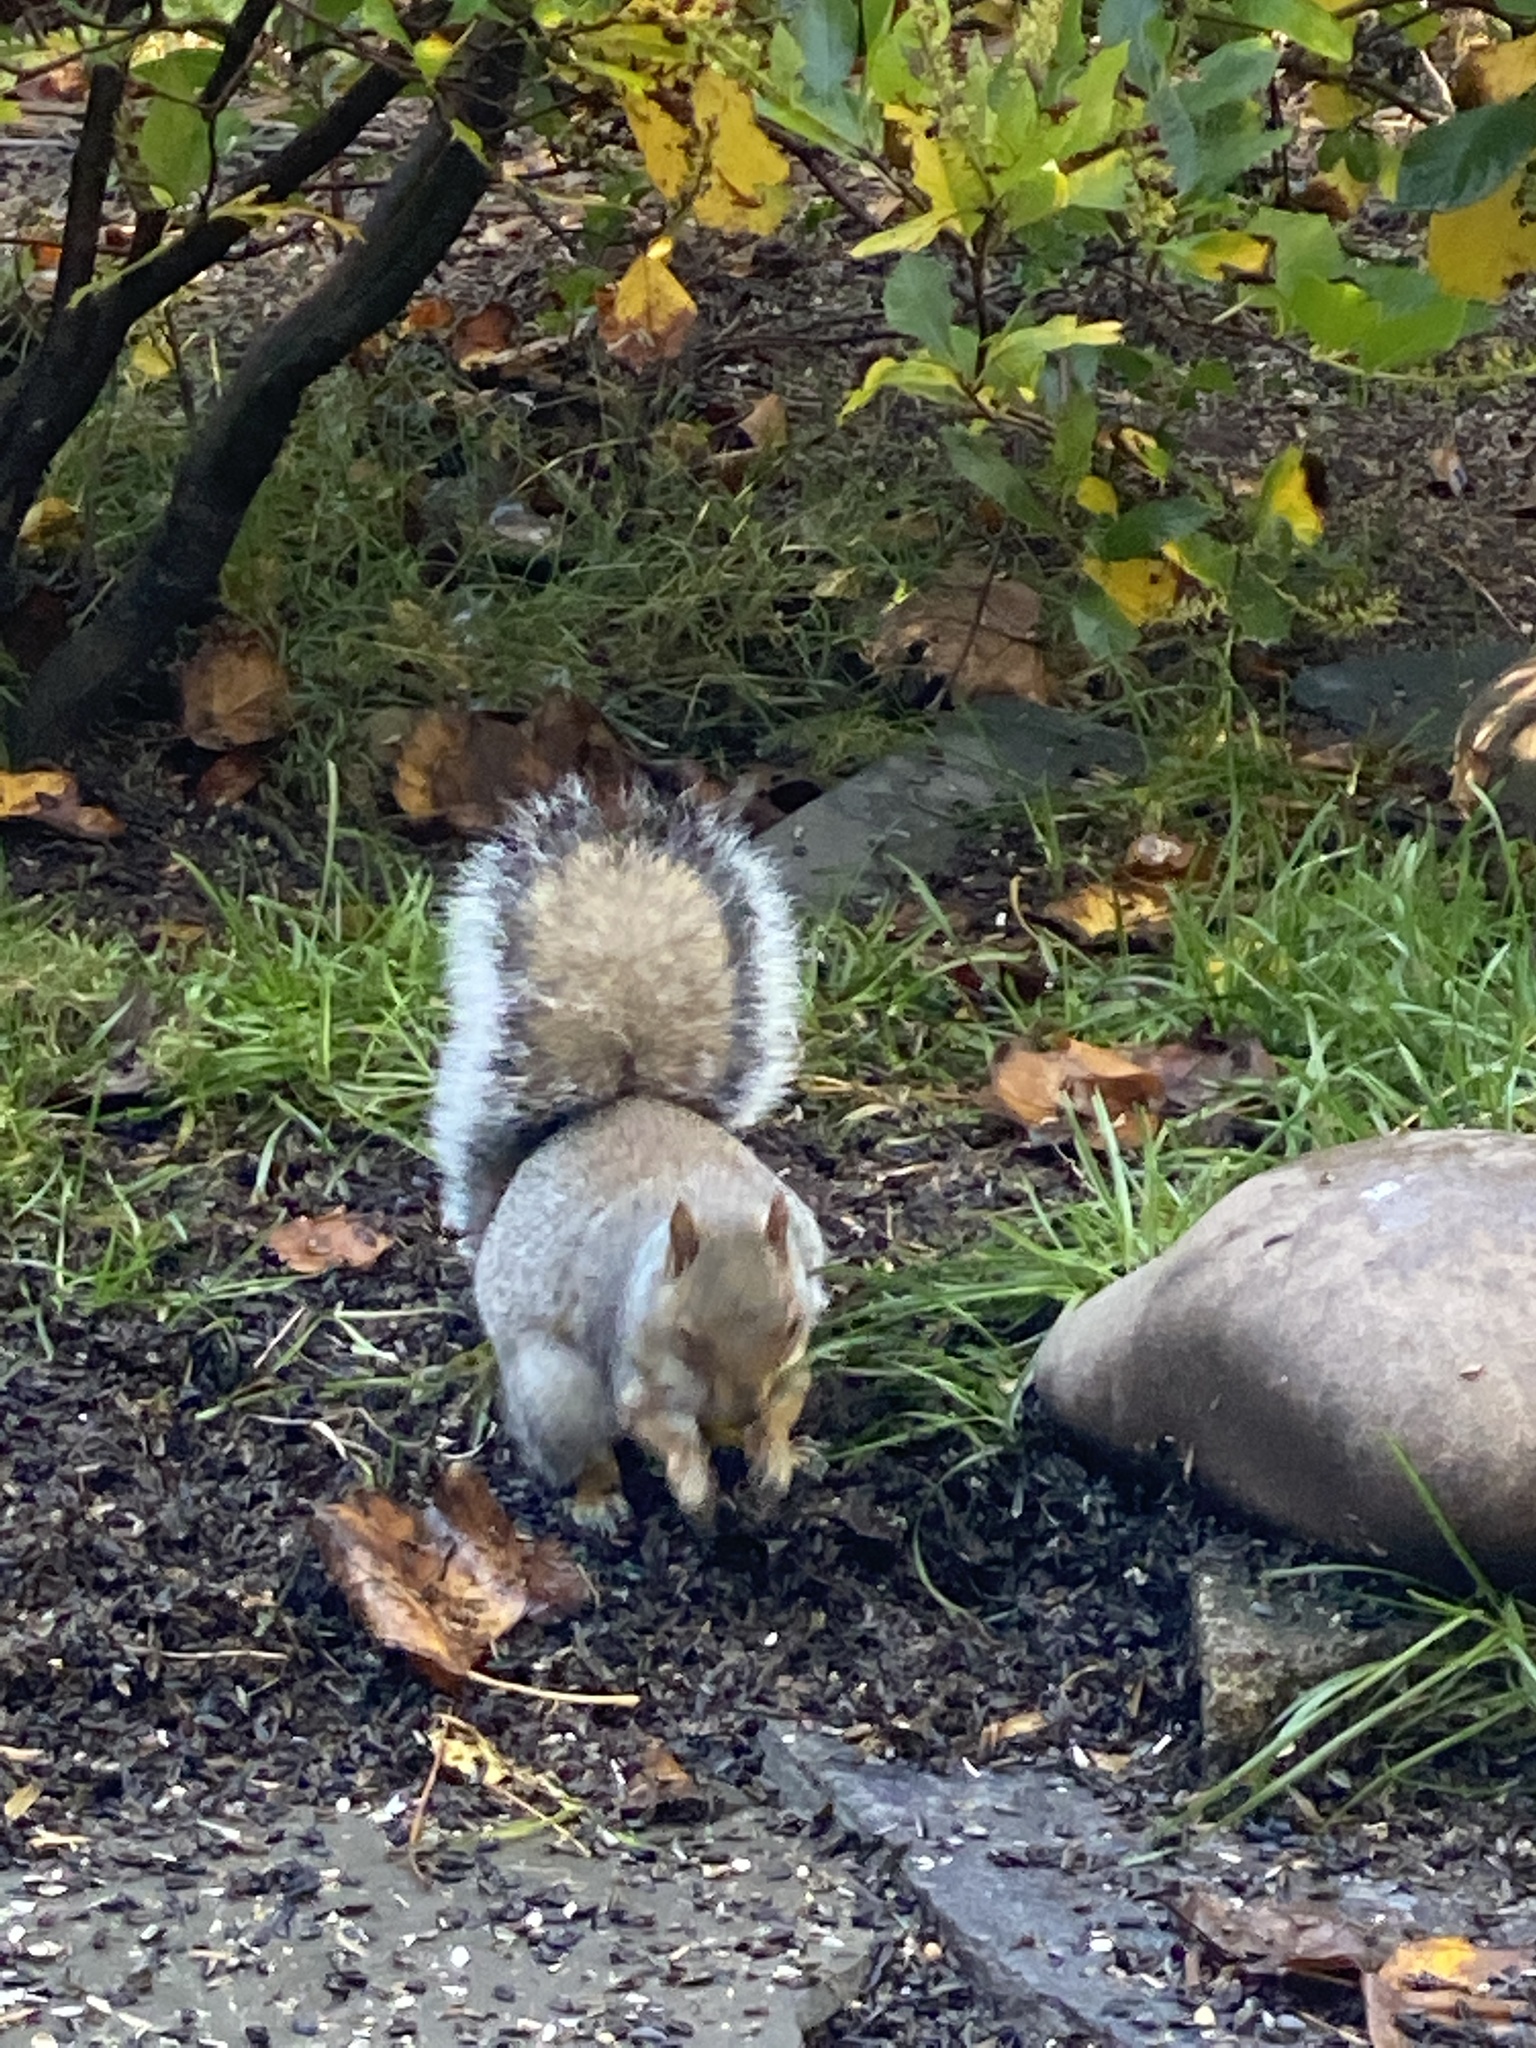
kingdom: Animalia
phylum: Chordata
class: Mammalia
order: Rodentia
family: Sciuridae
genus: Sciurus
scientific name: Sciurus carolinensis
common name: Eastern gray squirrel
